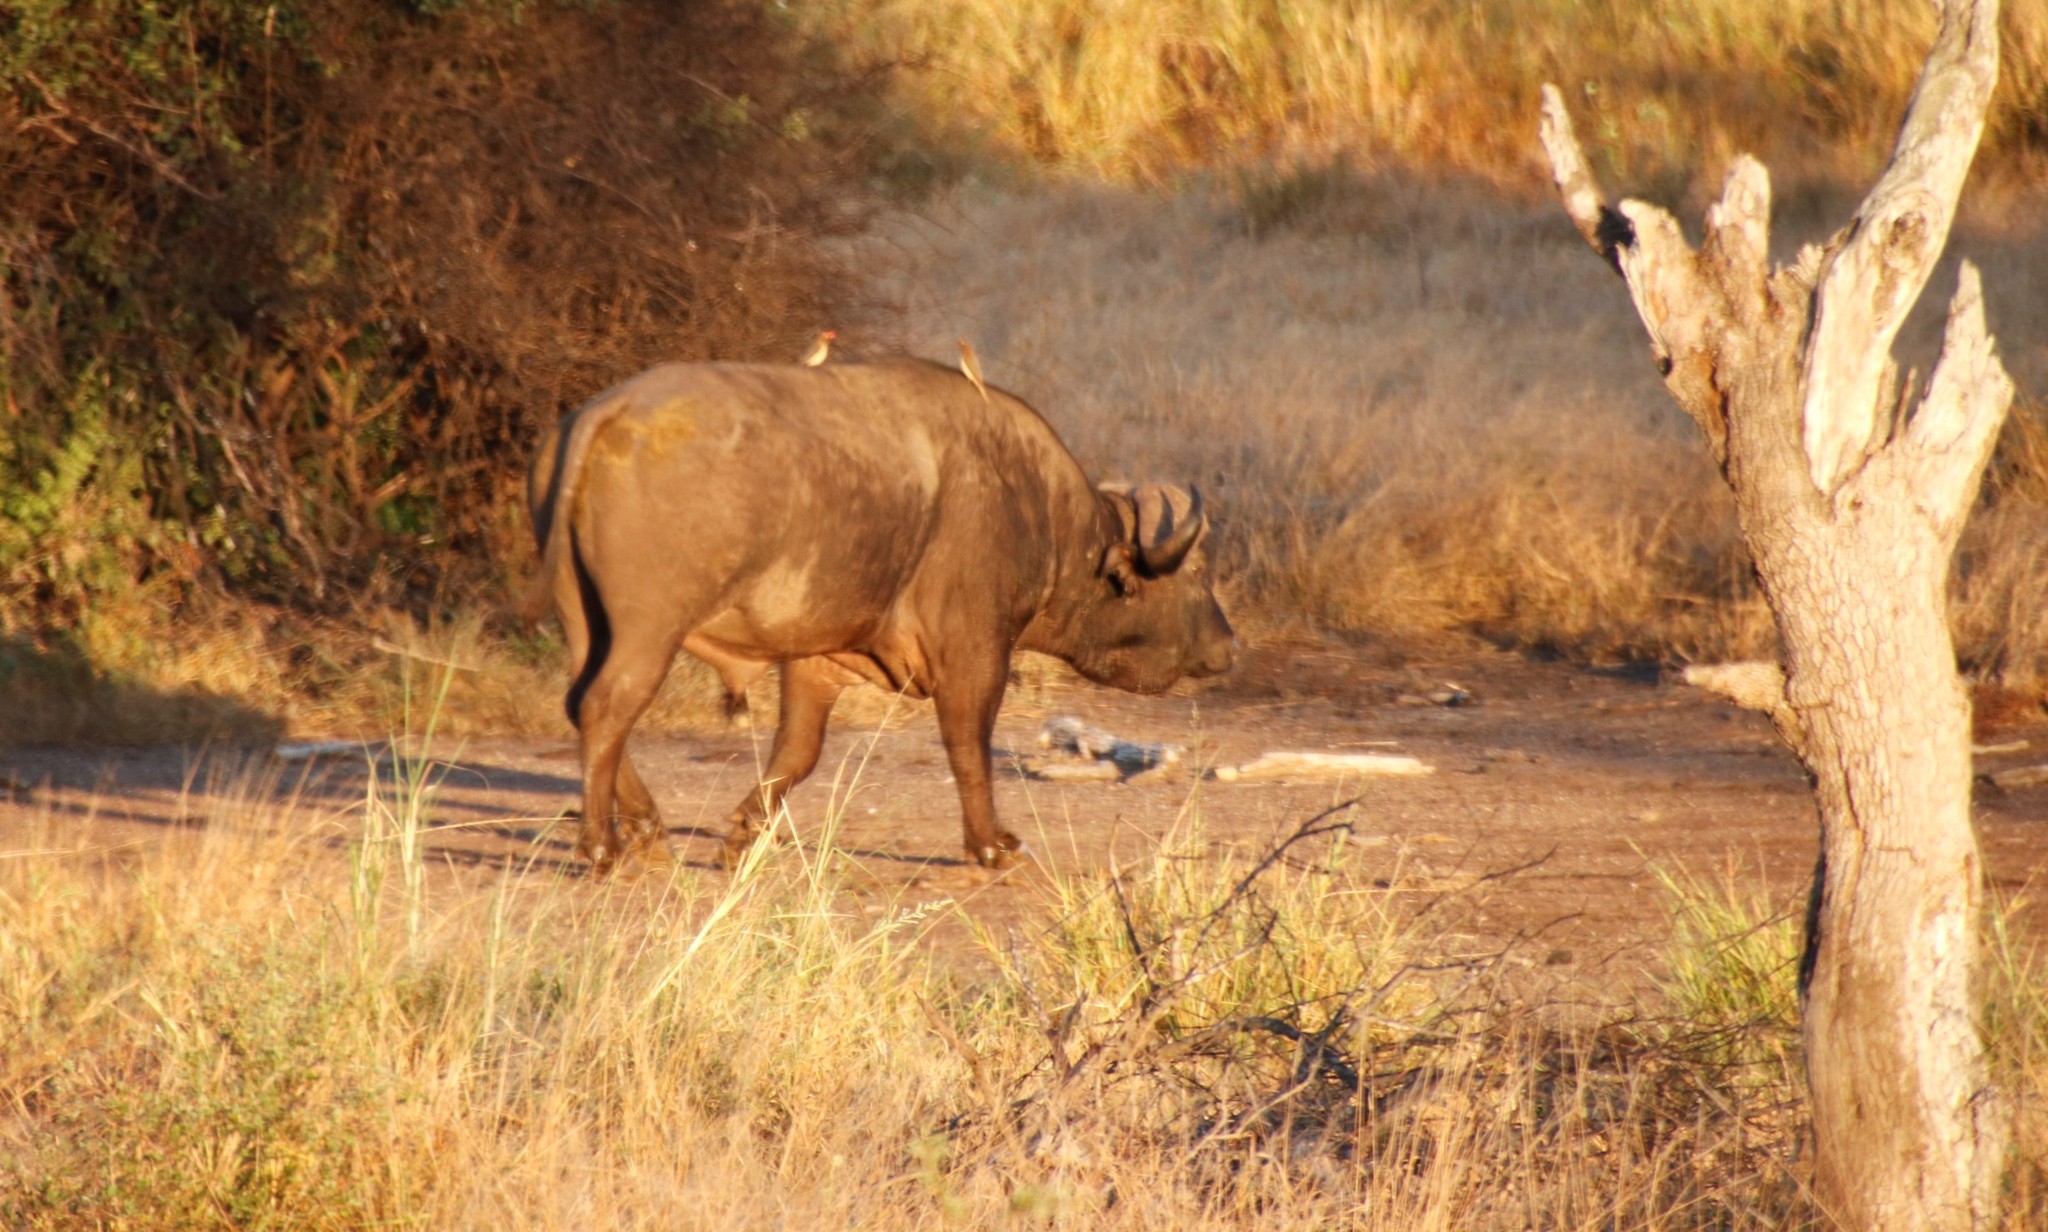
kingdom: Animalia
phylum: Chordata
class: Mammalia
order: Artiodactyla
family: Bovidae
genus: Syncerus
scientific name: Syncerus caffer
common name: African buffalo
